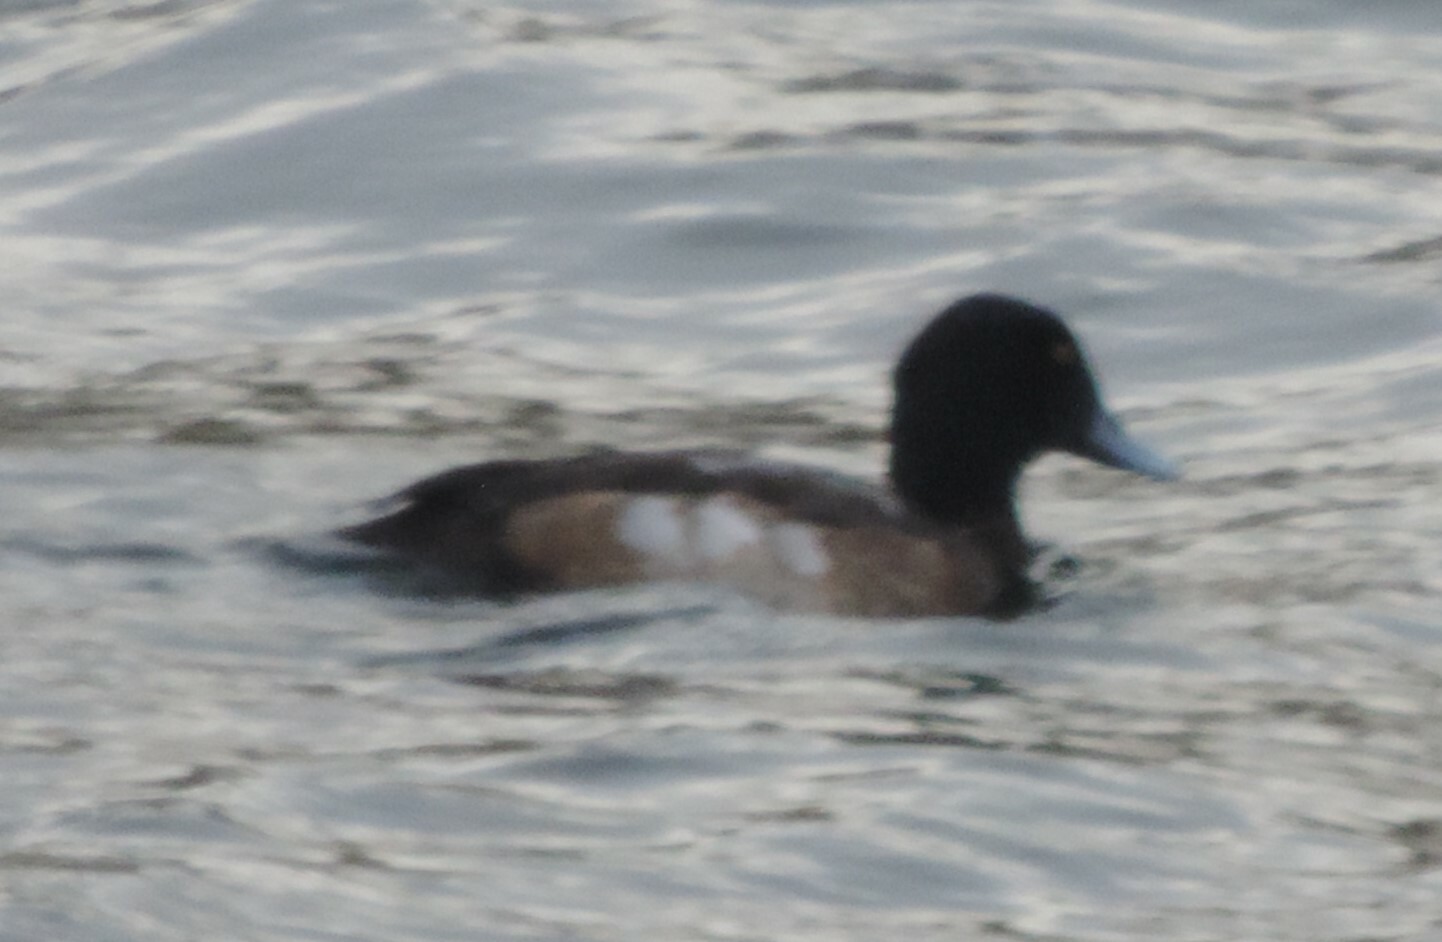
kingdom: Animalia
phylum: Chordata
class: Aves
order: Anseriformes
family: Anatidae
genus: Aythya
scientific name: Aythya marila
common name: Greater scaup
